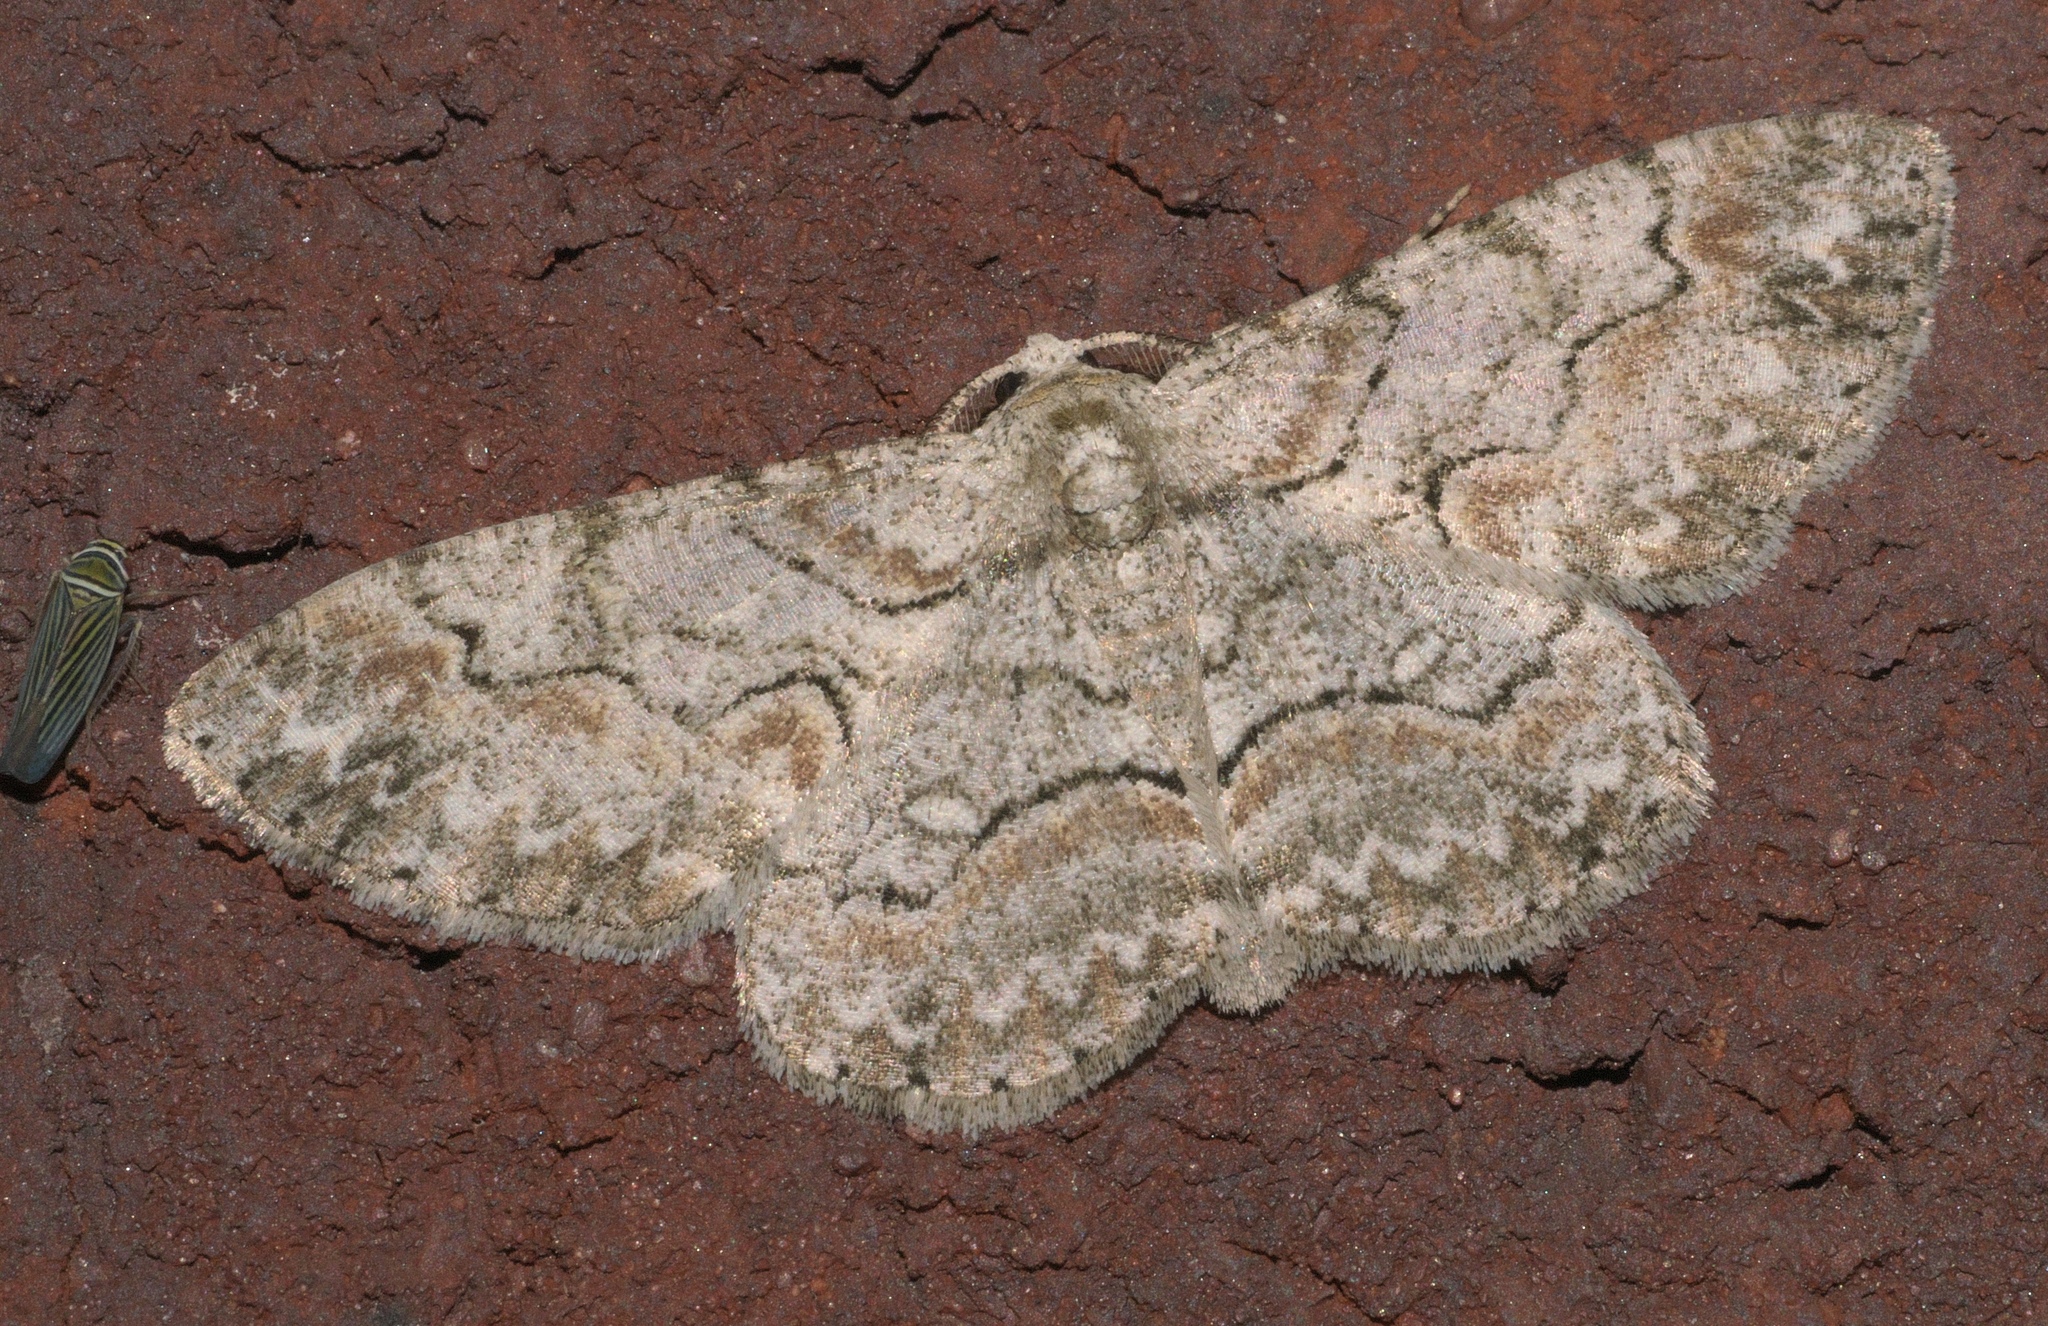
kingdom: Animalia
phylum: Arthropoda
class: Insecta
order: Lepidoptera
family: Geometridae
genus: Iridopsis
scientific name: Iridopsis defectaria
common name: Brown-shaded gray
